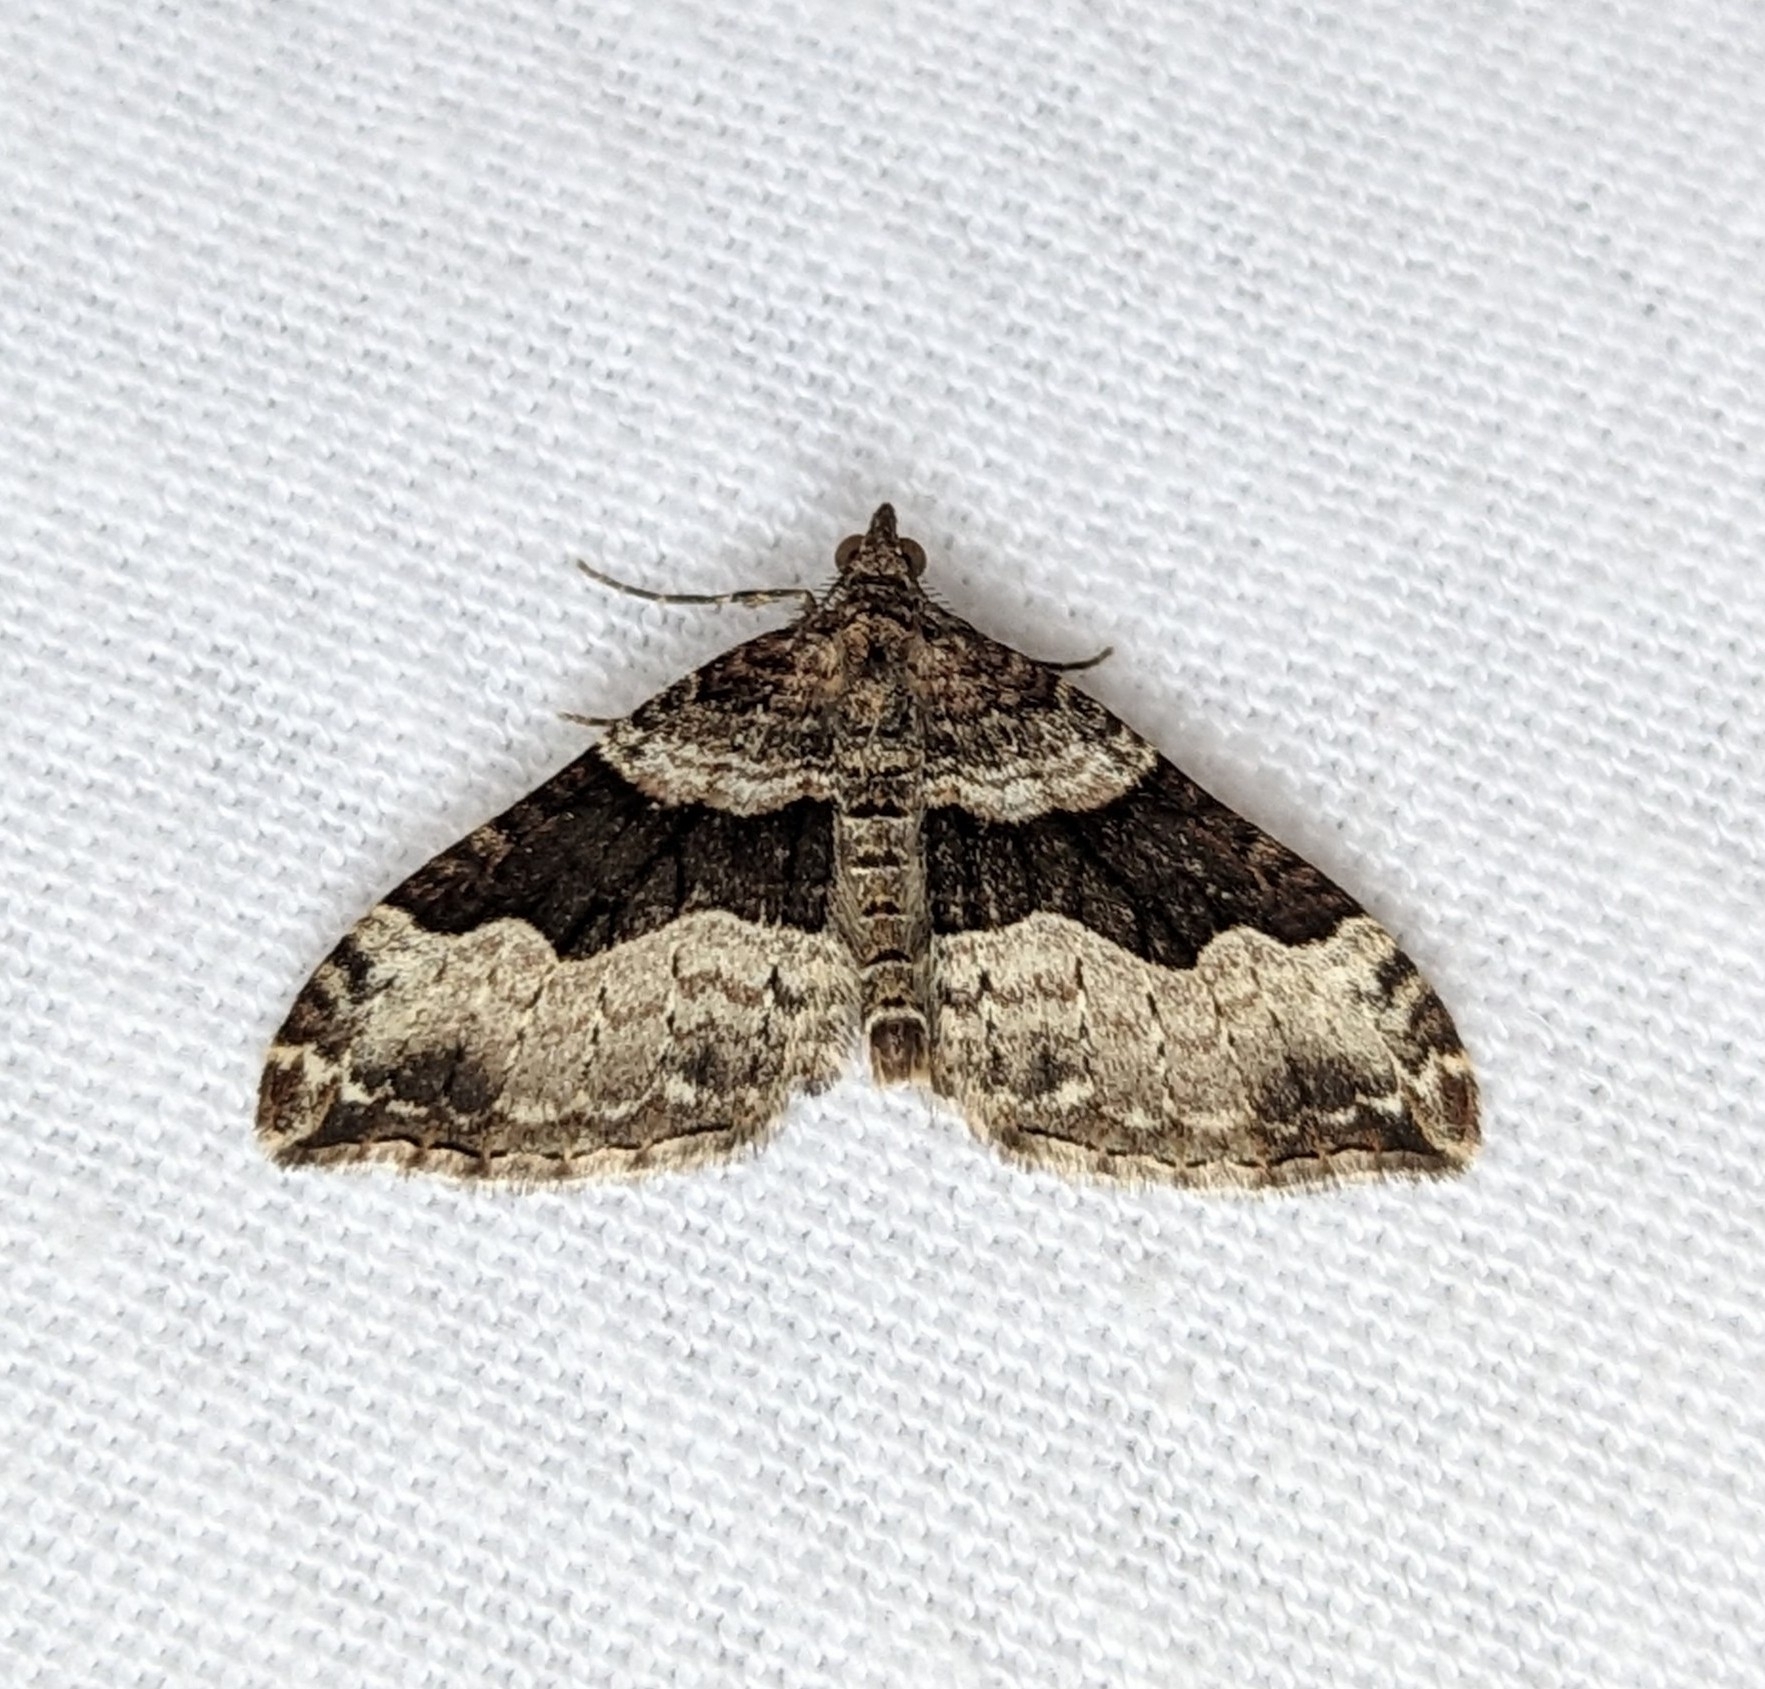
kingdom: Animalia
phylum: Arthropoda
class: Insecta
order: Lepidoptera
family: Geometridae
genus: Xanthorhoe
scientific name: Xanthorhoe defensaria
